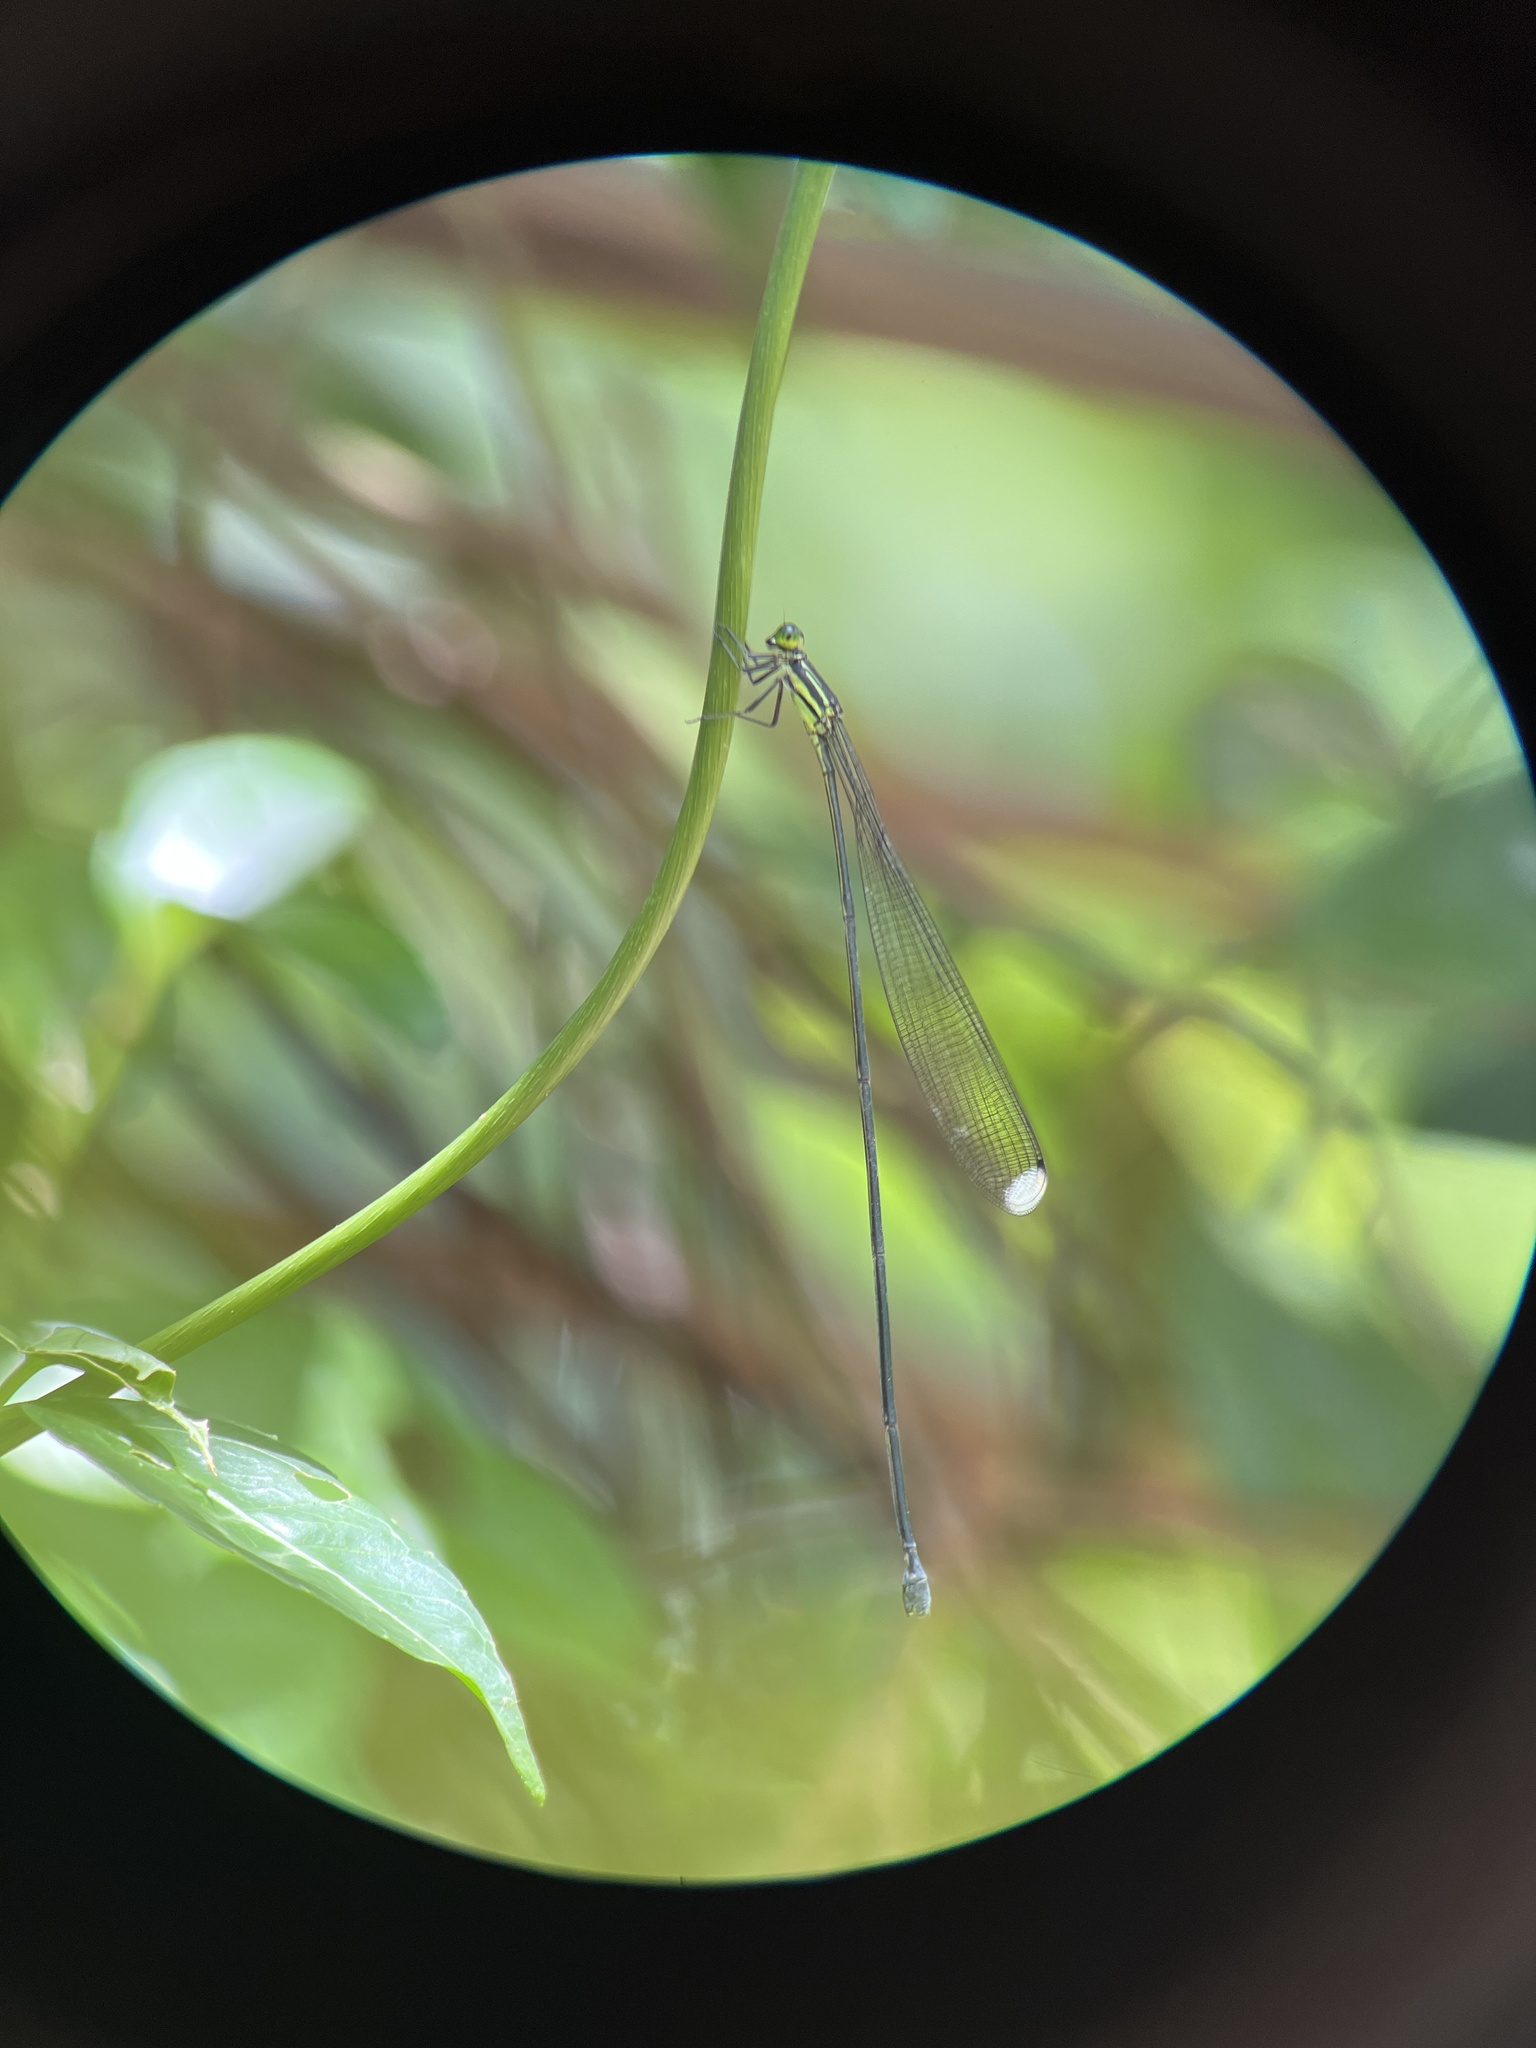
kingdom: Animalia
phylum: Arthropoda
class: Insecta
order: Odonata
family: Coenagrionidae
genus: Mecistogaster
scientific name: Mecistogaster modesta
